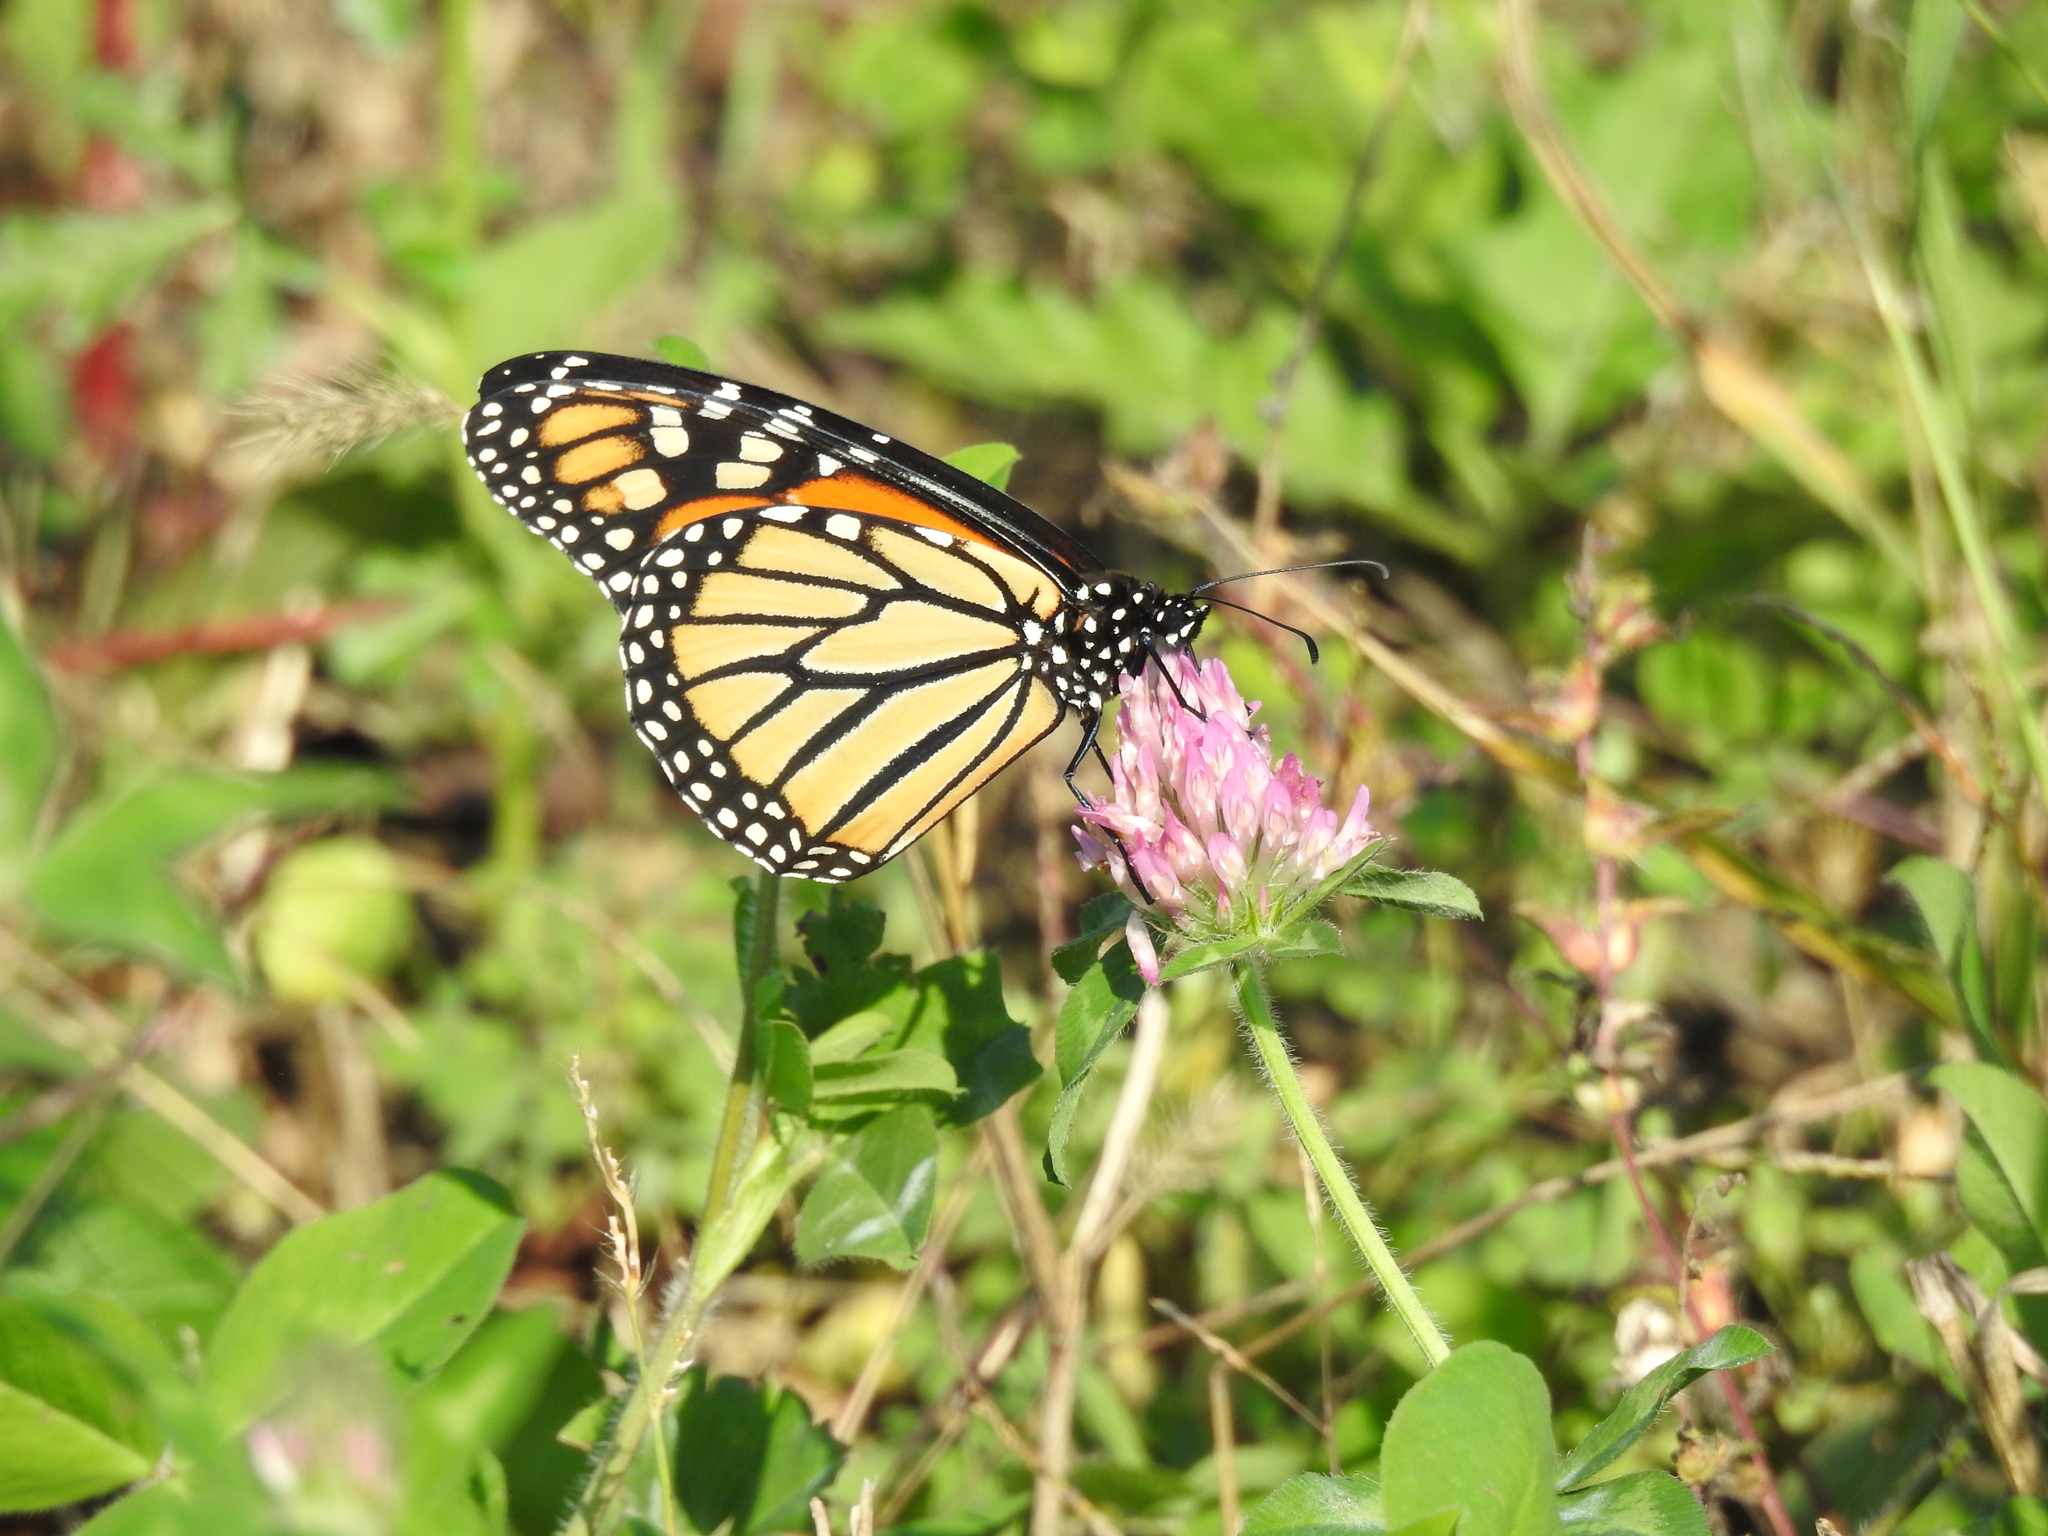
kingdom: Animalia
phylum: Arthropoda
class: Insecta
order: Lepidoptera
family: Nymphalidae
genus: Danaus
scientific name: Danaus plexippus
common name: Monarch
